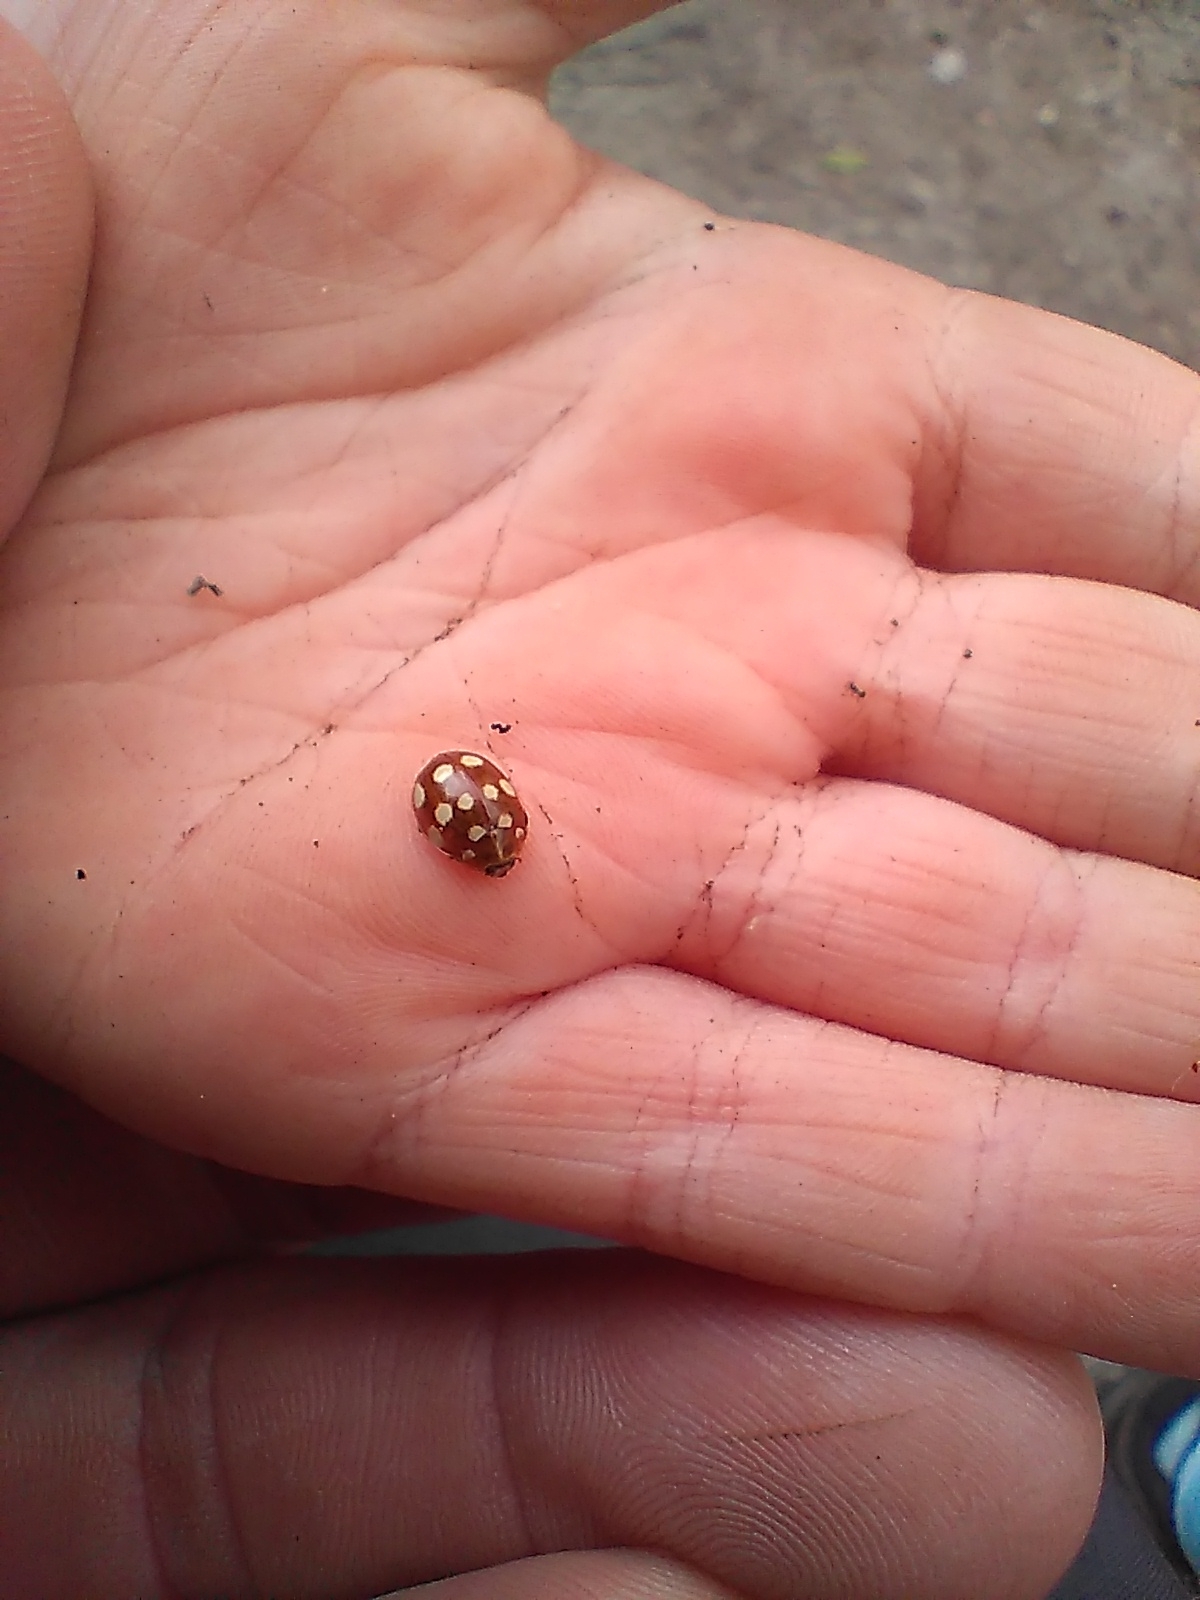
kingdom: Animalia
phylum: Arthropoda
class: Insecta
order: Coleoptera
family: Coccinellidae
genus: Calvia
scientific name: Calvia quatuordecimguttata
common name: Cream-spot ladybird
